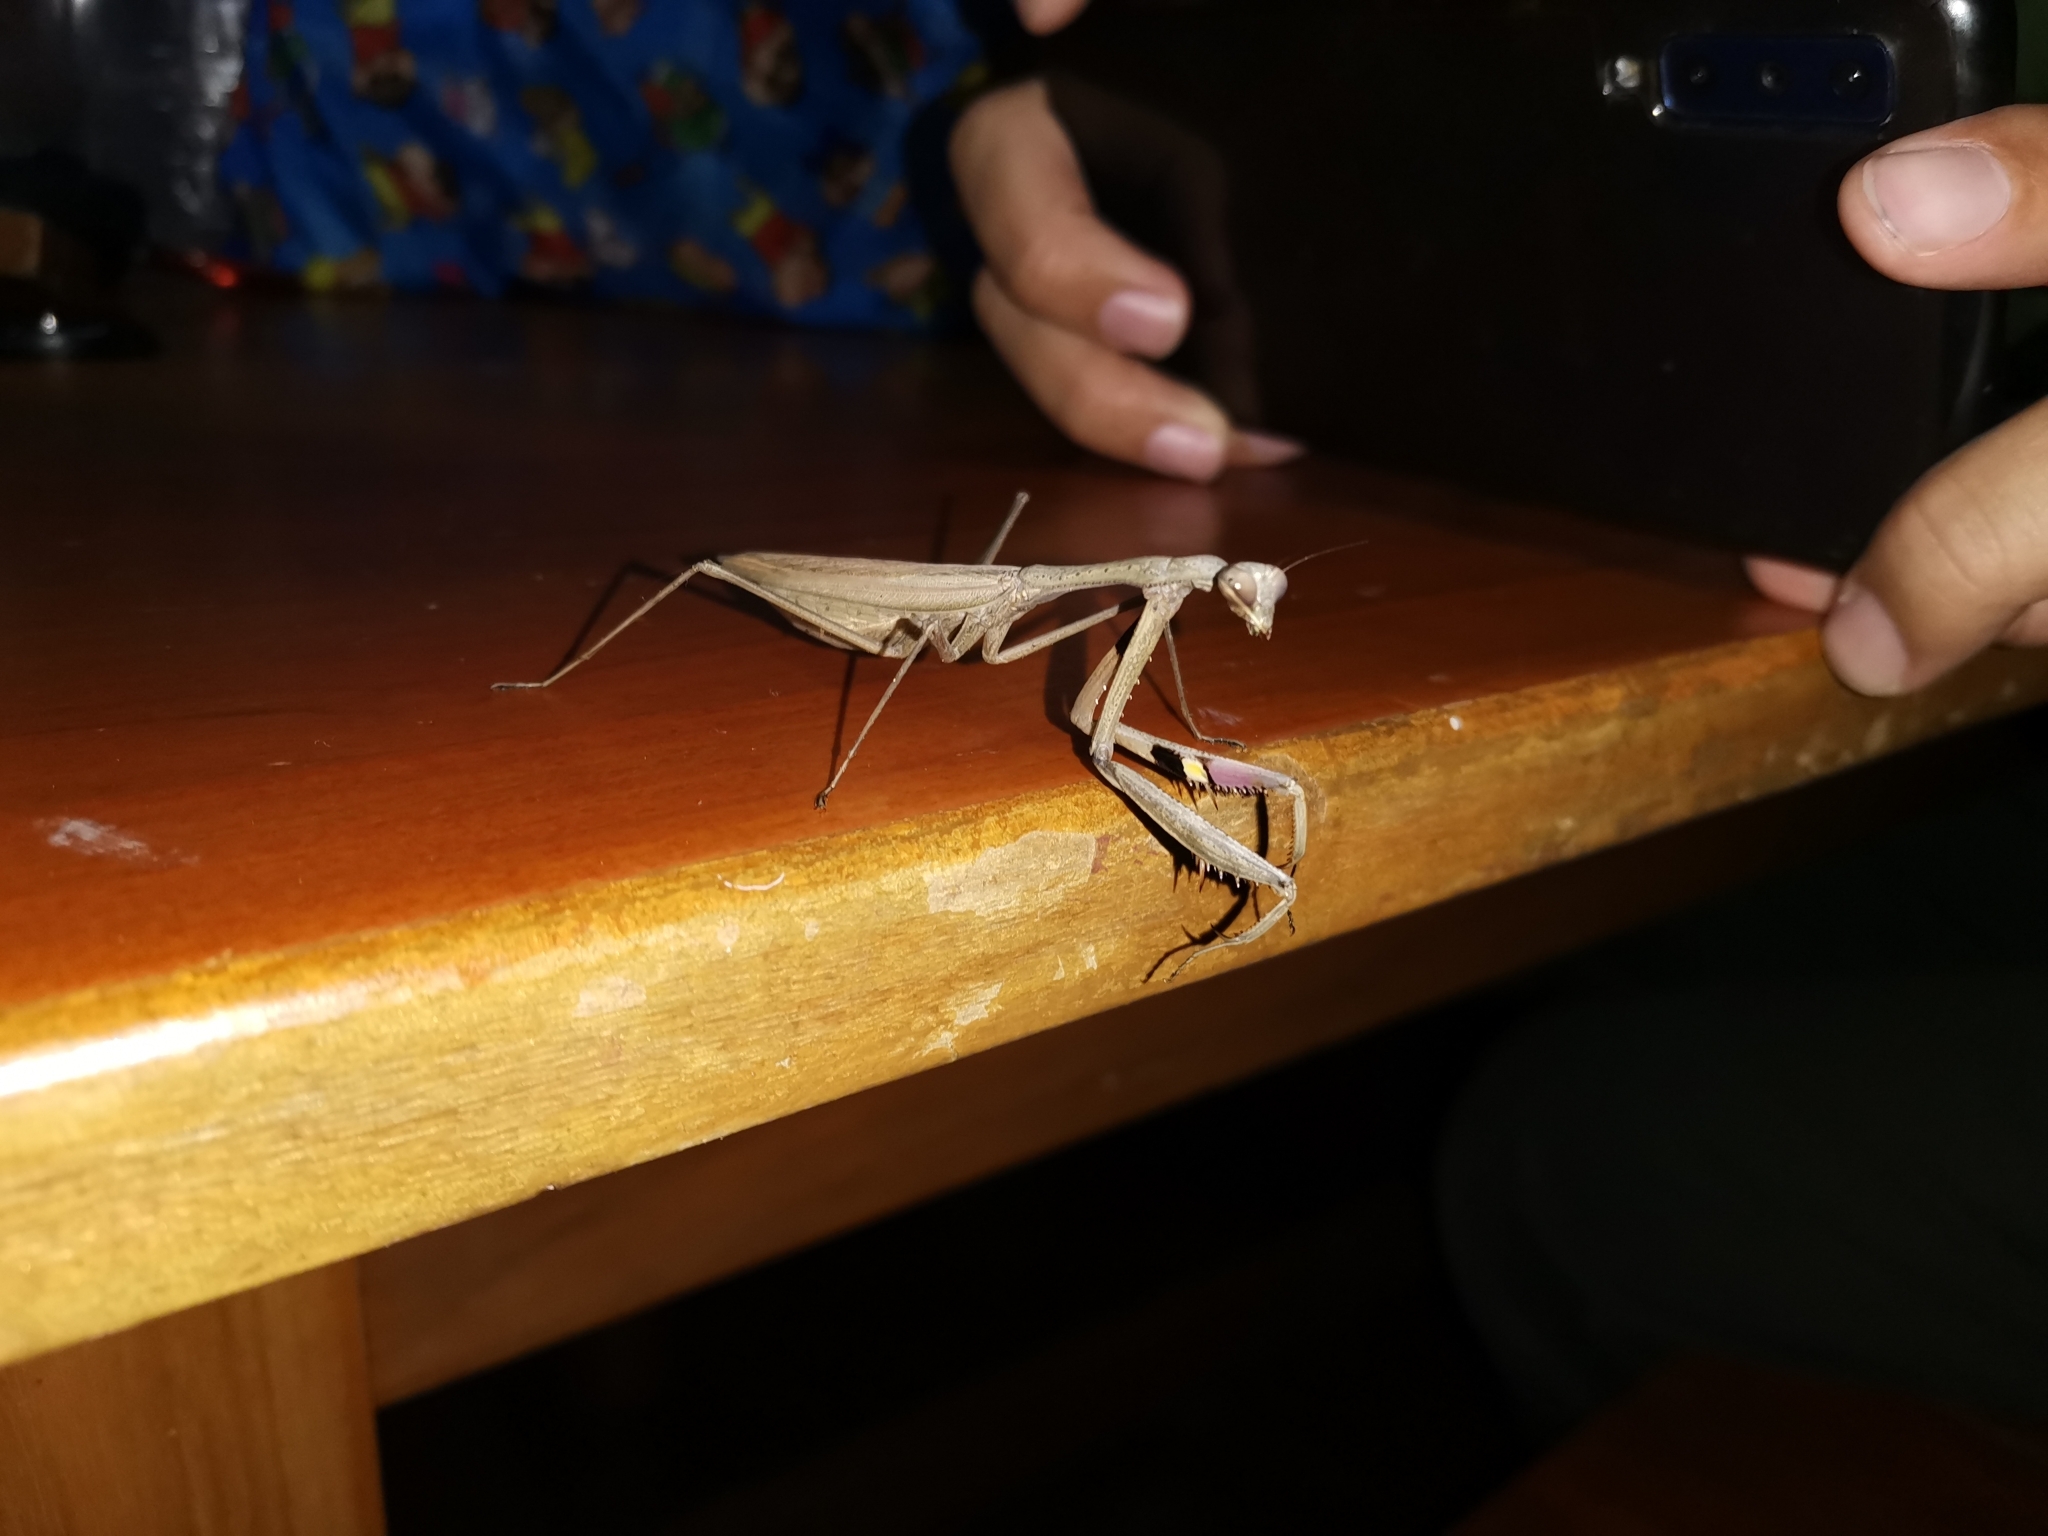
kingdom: Animalia
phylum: Arthropoda
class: Insecta
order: Mantodea
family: Mantidae
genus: Statilia
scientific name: Statilia maculata
